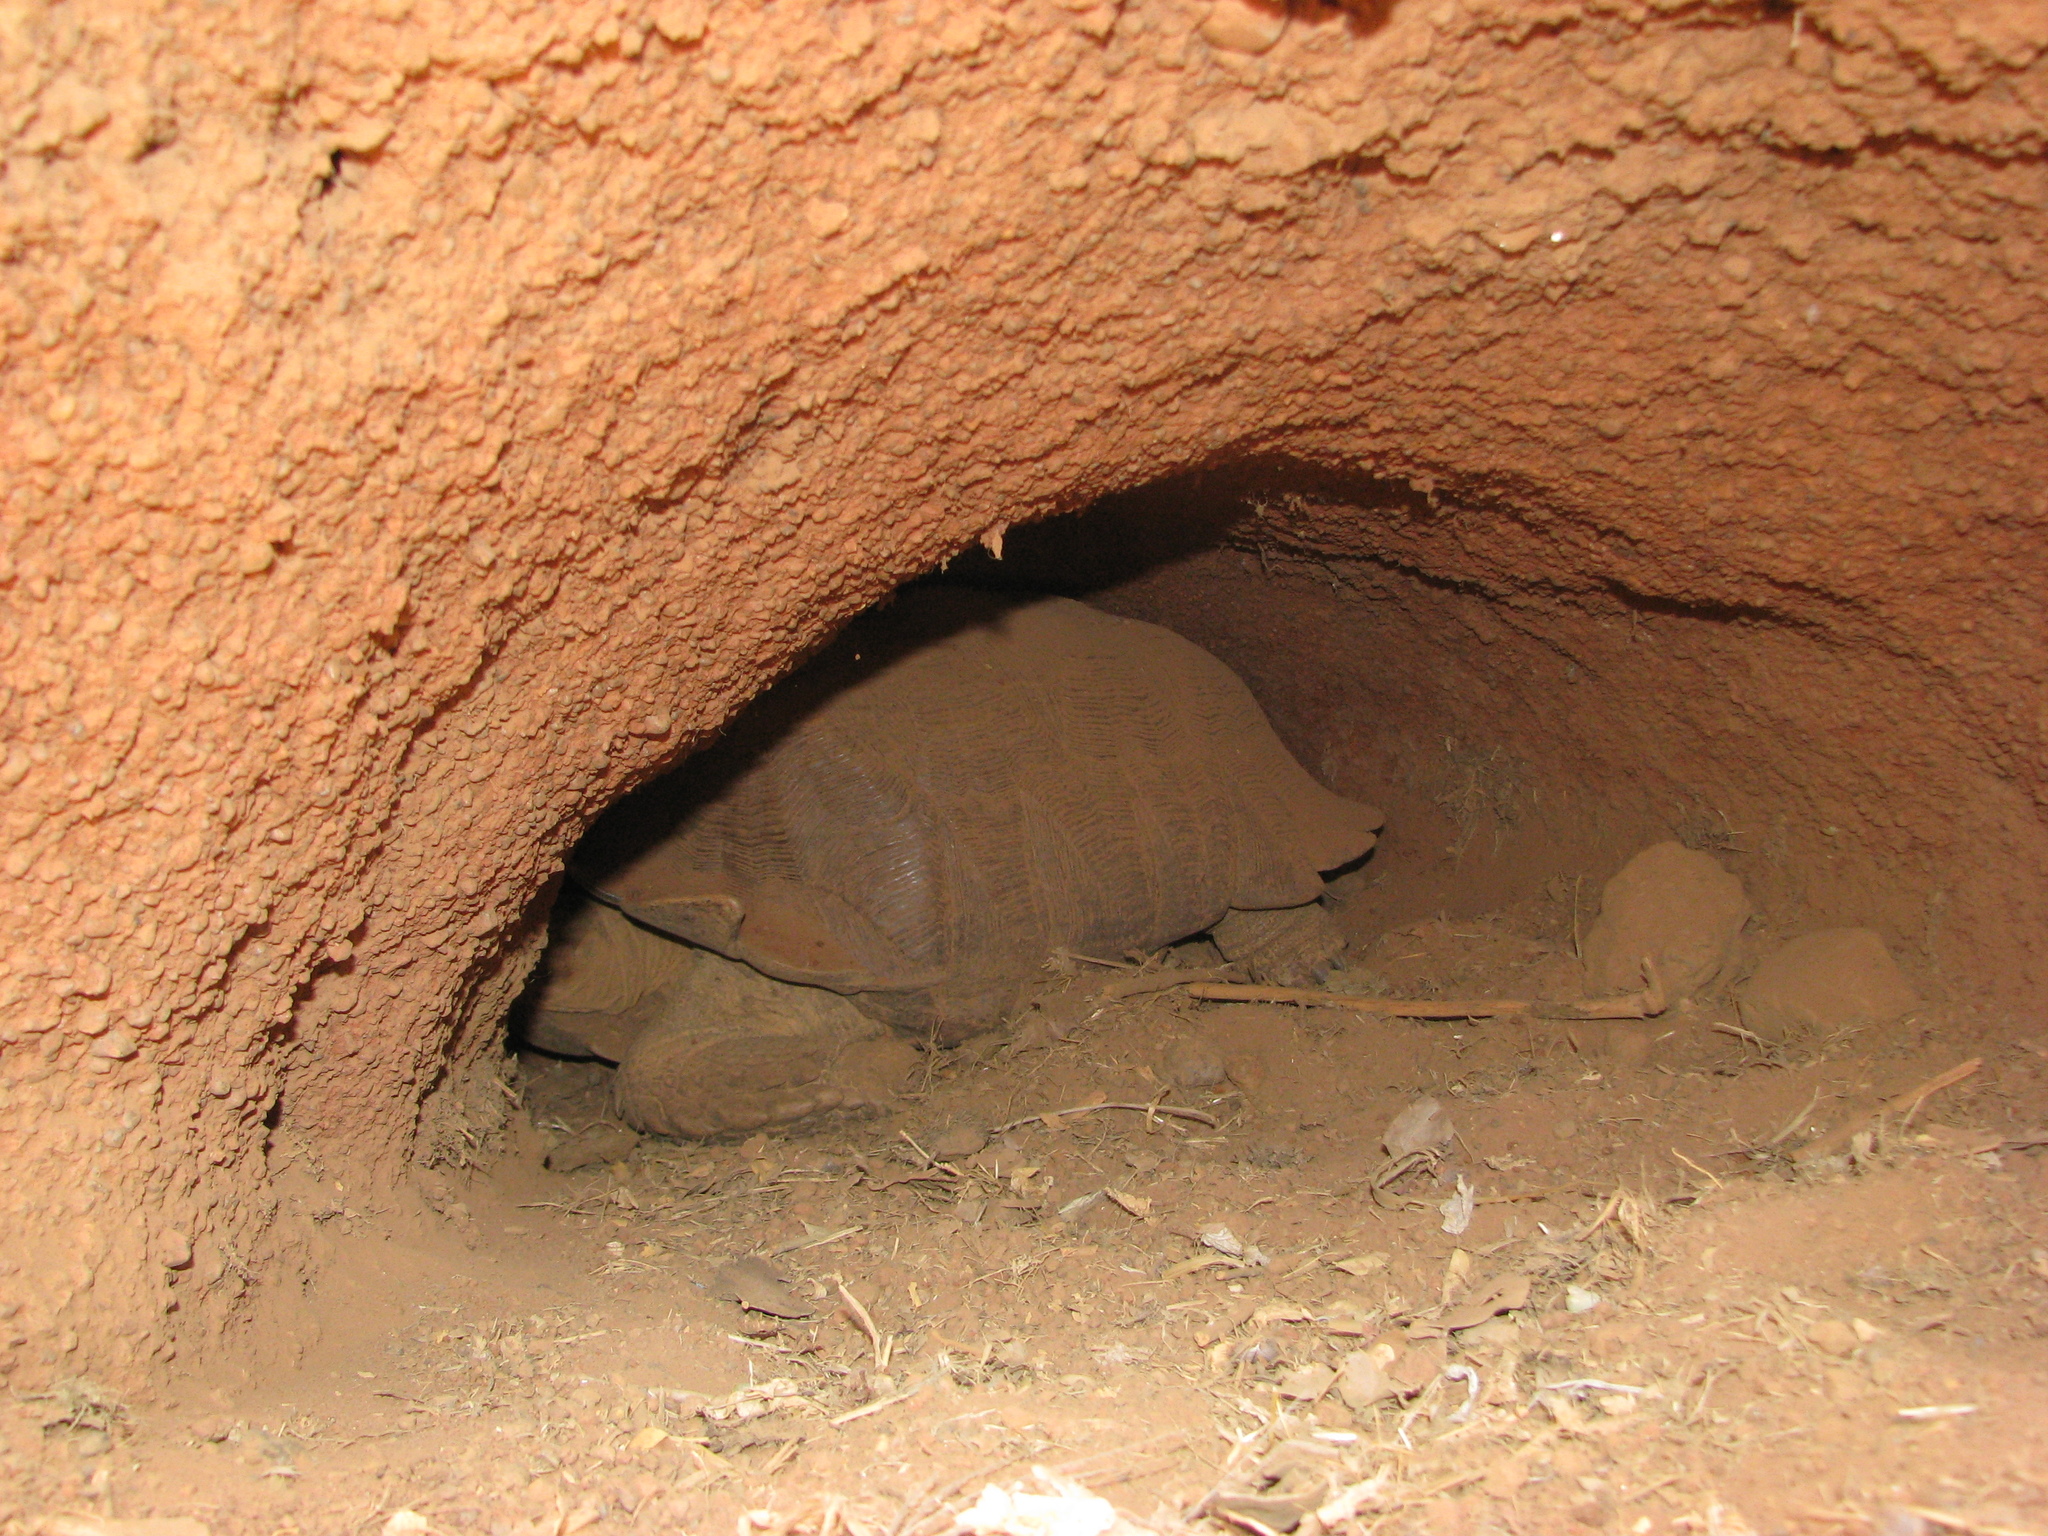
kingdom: Animalia
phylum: Chordata
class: Testudines
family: Testudinidae
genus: Centrochelys
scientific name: Centrochelys sulcata
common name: African spurred tortoise
